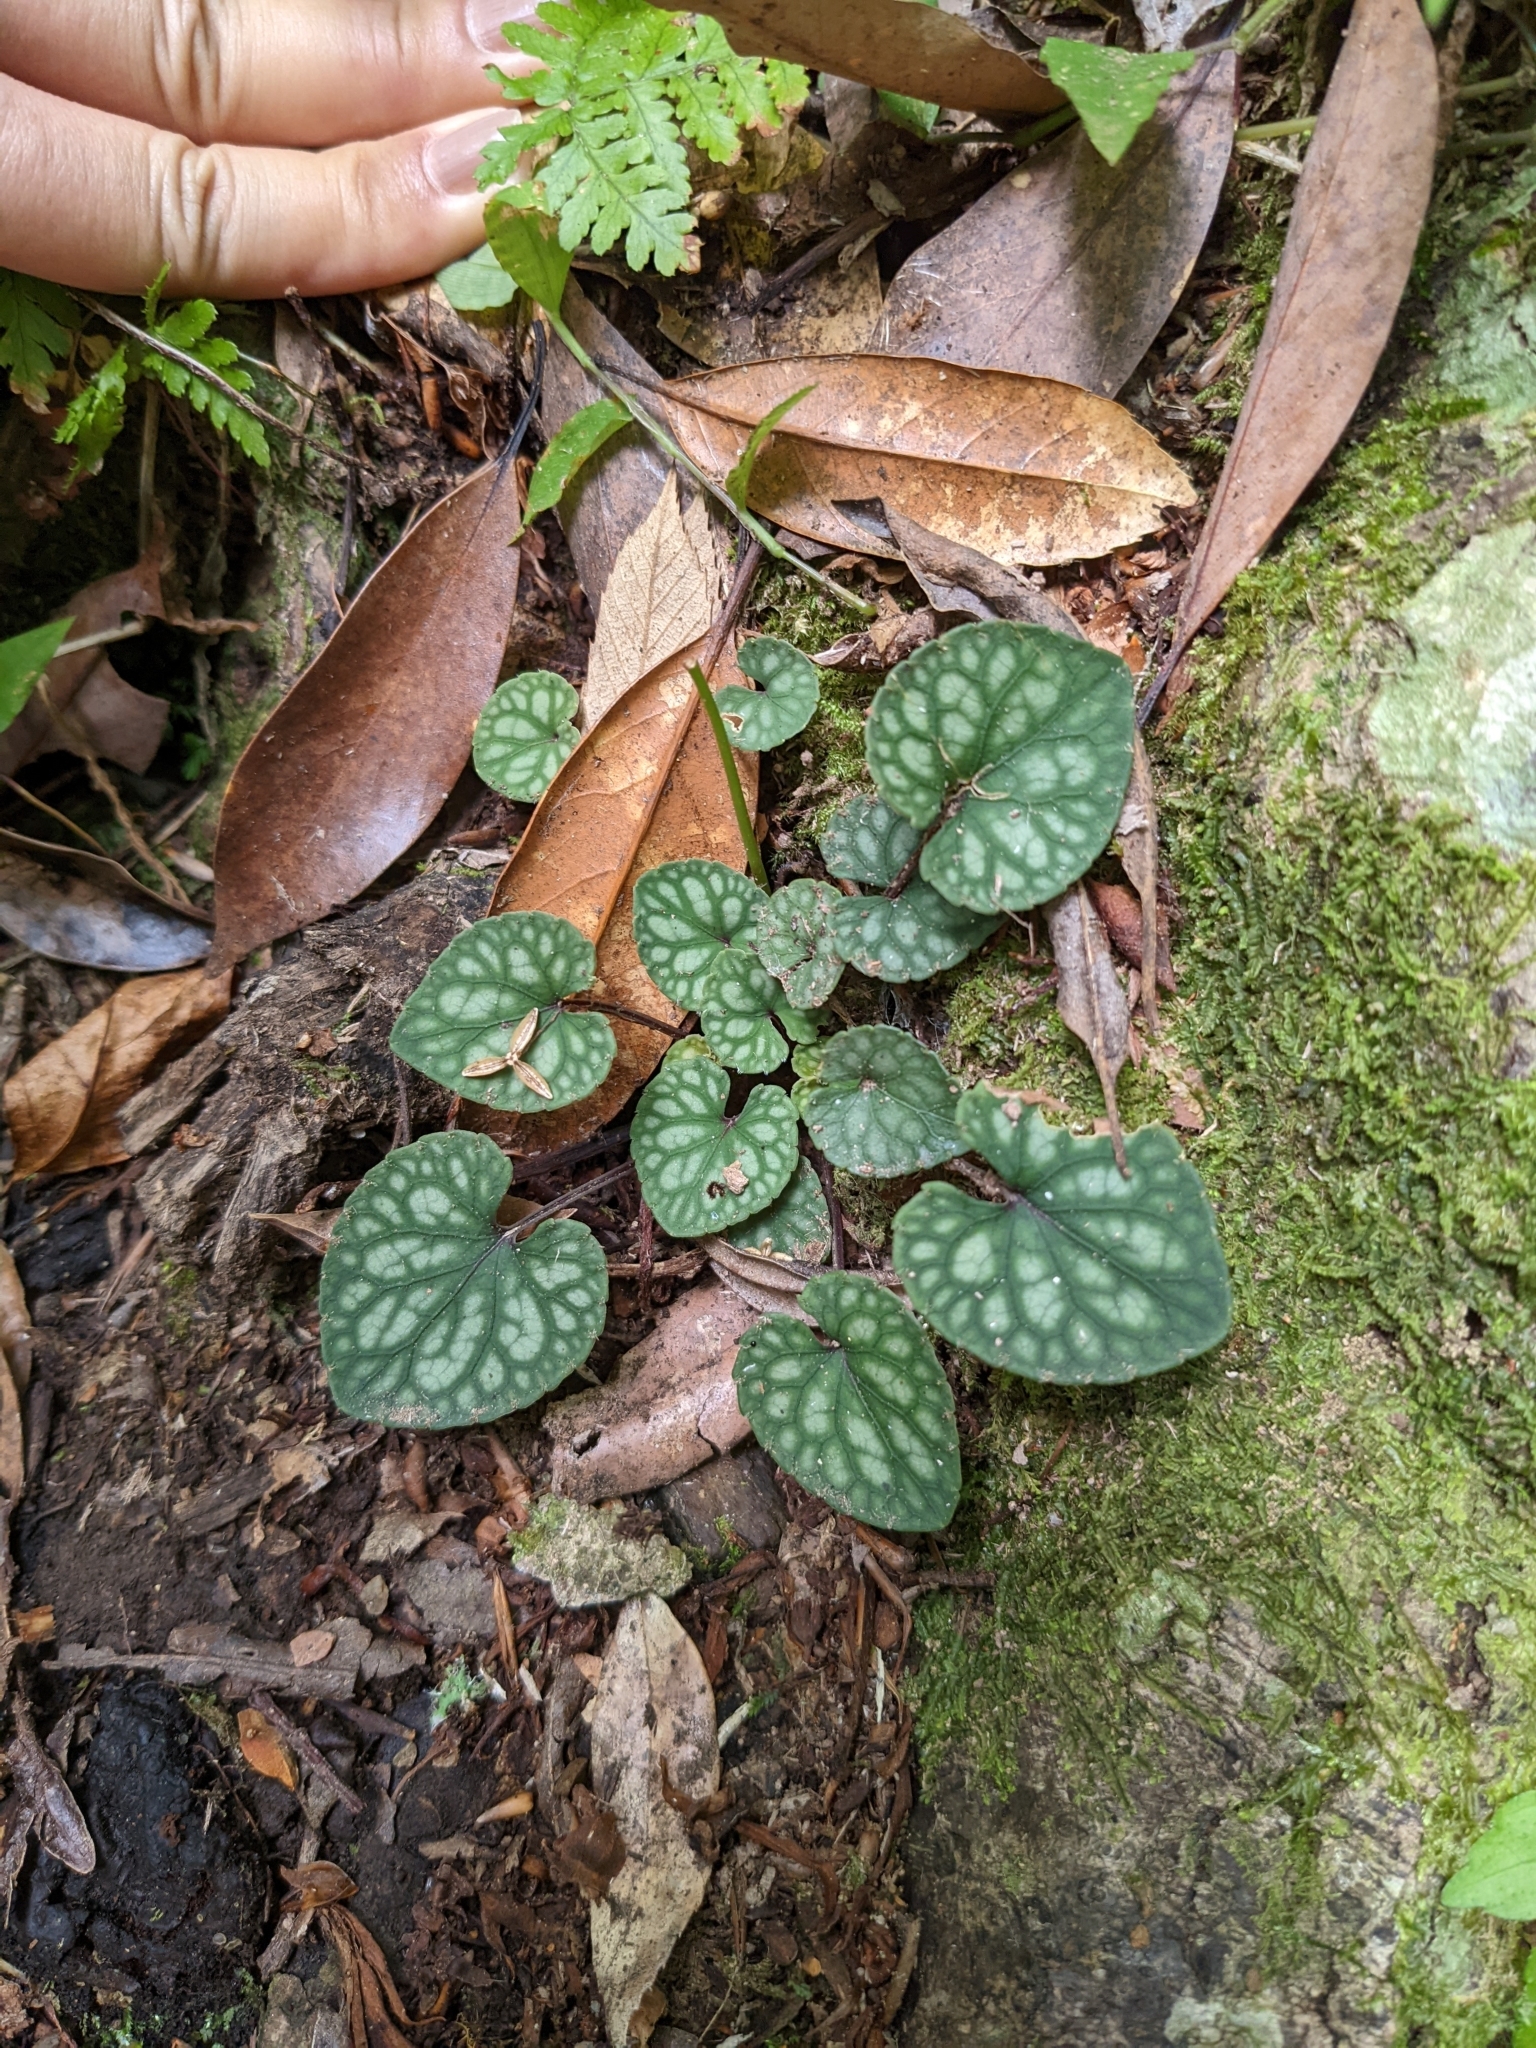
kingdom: Plantae
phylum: Tracheophyta
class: Magnoliopsida
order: Malpighiales
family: Violaceae
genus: Viola
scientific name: Viola formosana
